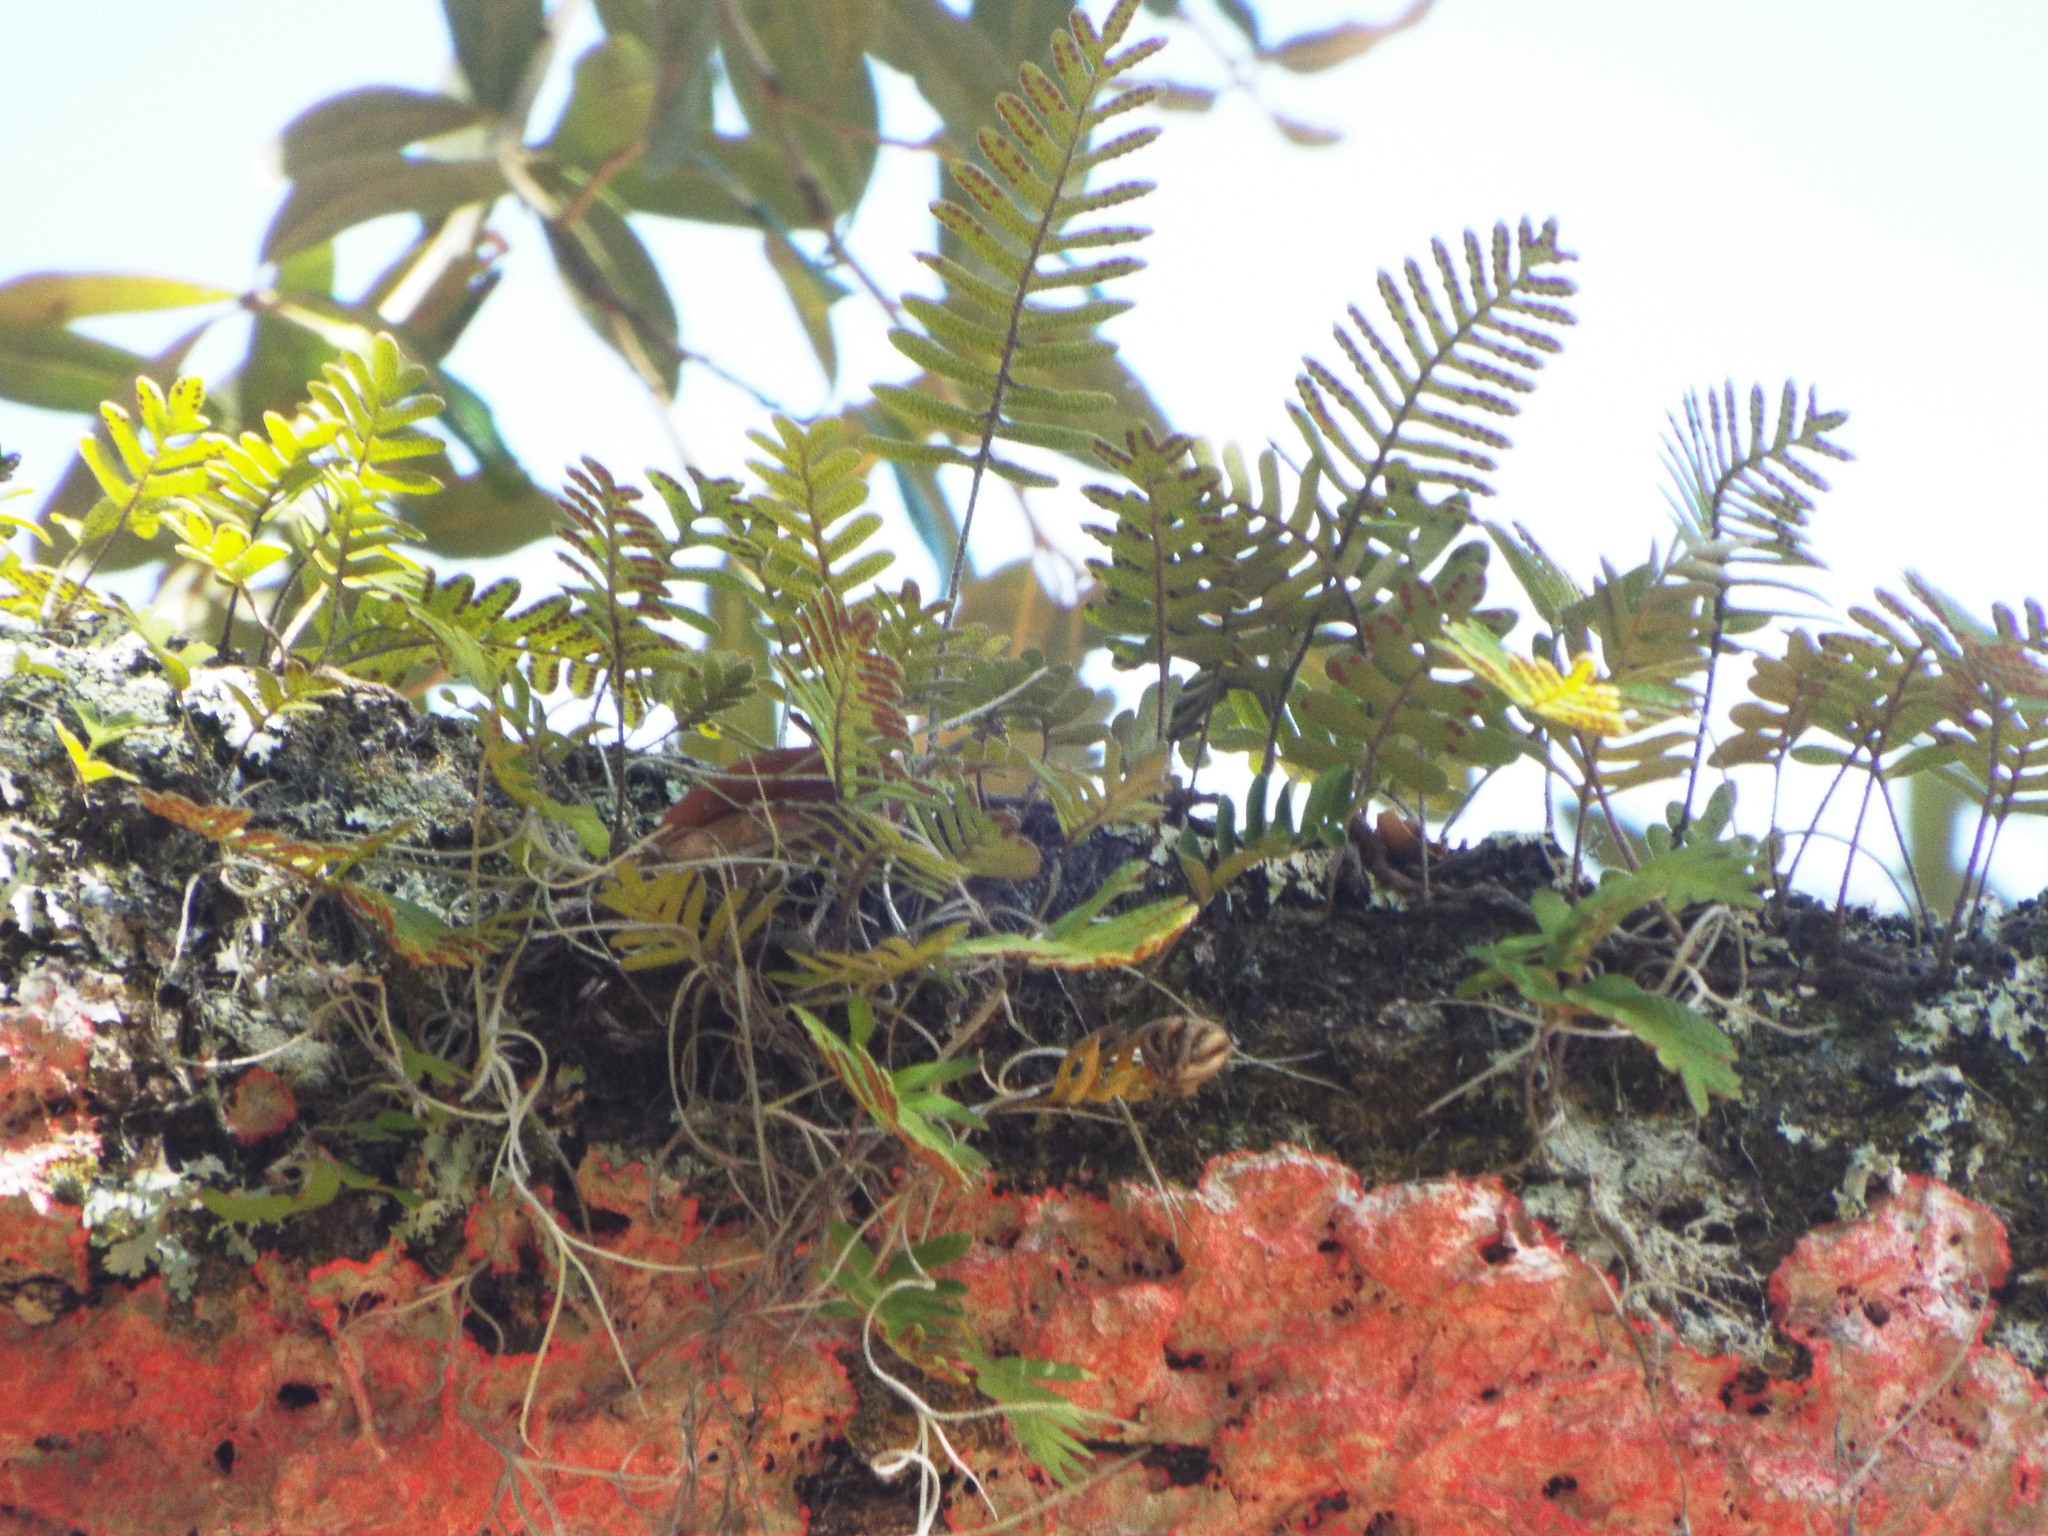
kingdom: Plantae
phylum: Tracheophyta
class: Polypodiopsida
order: Polypodiales
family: Polypodiaceae
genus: Pleopeltis
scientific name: Pleopeltis michauxiana
